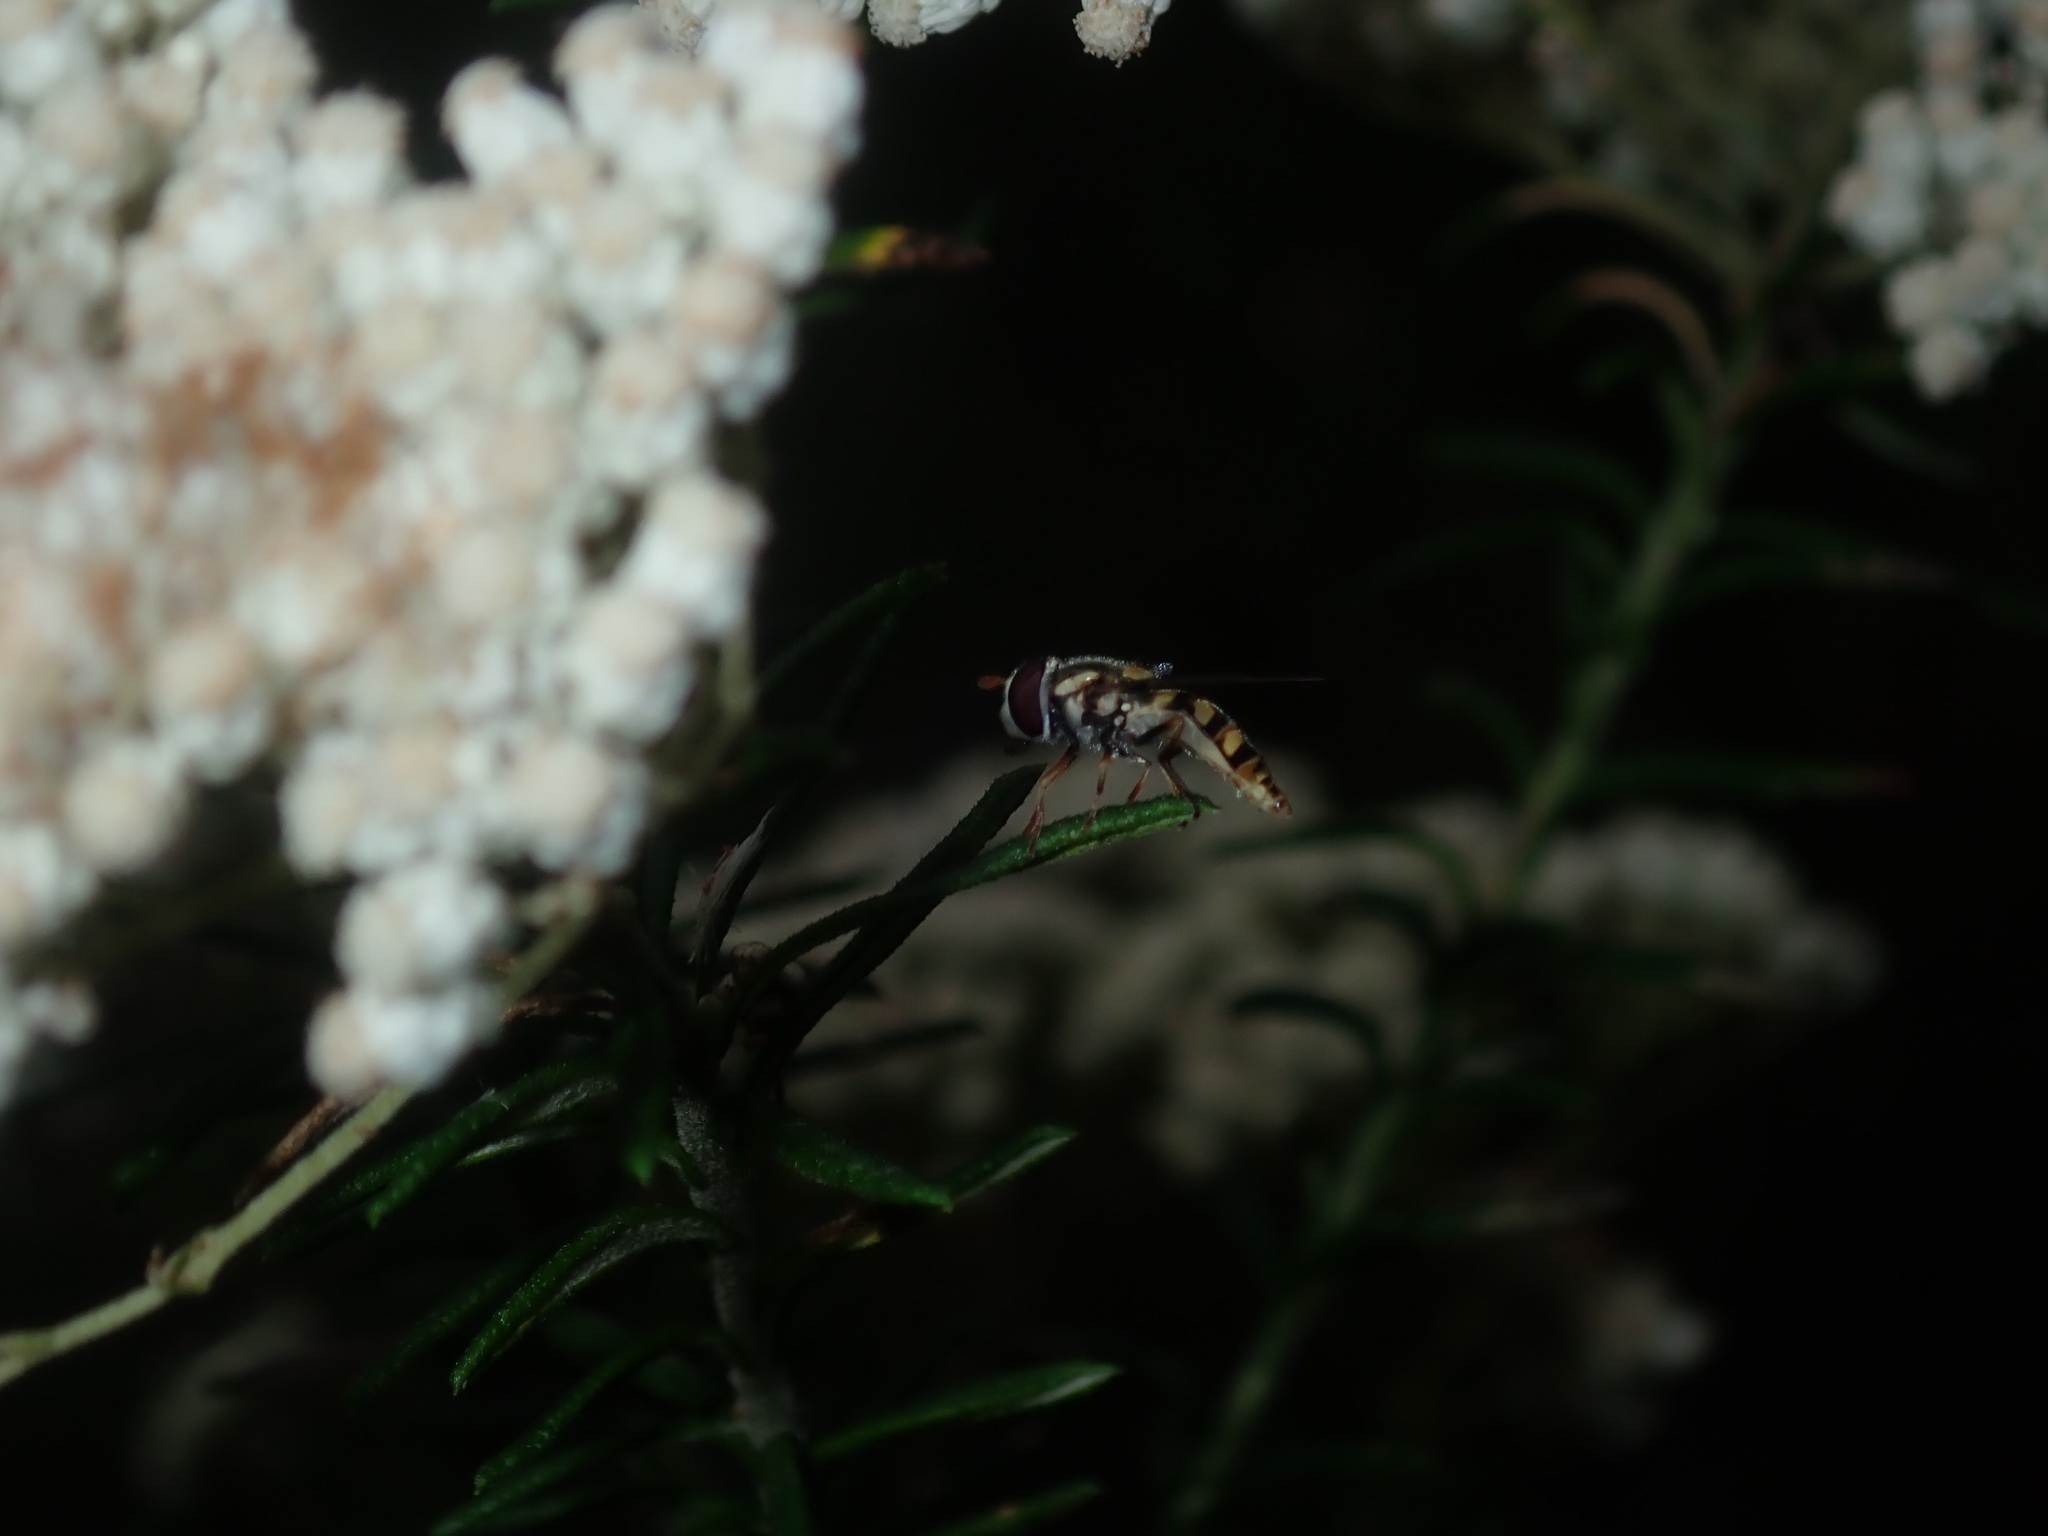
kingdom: Animalia
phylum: Arthropoda
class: Insecta
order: Diptera
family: Syrphidae
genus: Simosyrphus
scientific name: Simosyrphus grandicornis
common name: Hoverfly
